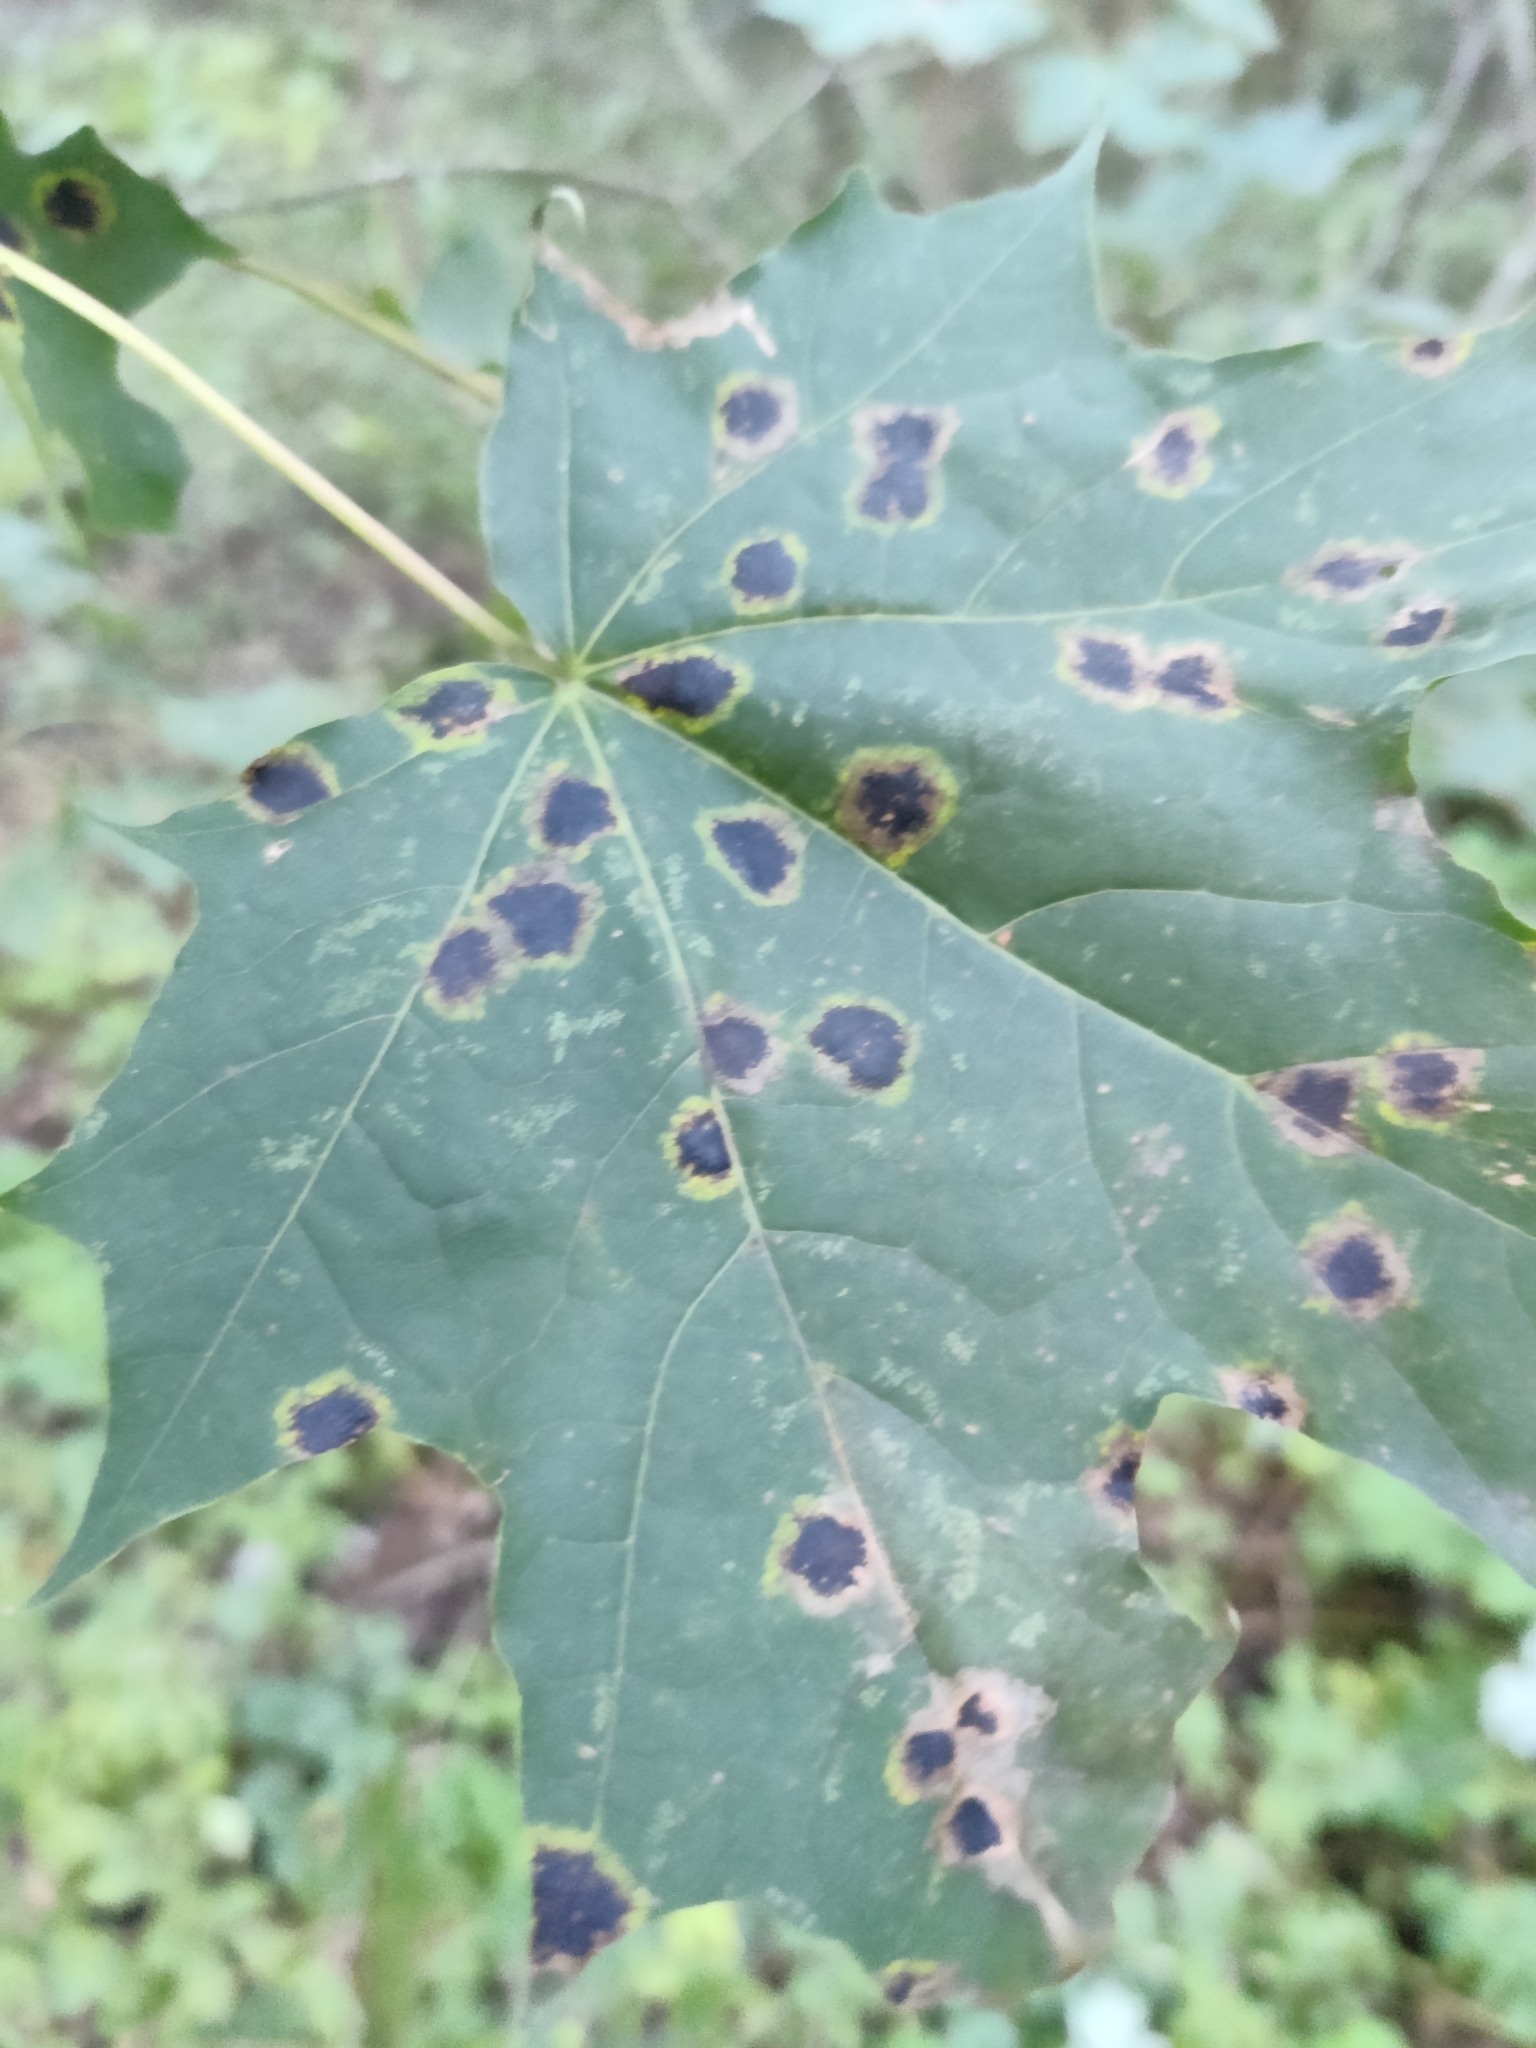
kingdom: Fungi
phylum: Ascomycota
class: Leotiomycetes
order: Rhytismatales
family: Rhytismataceae
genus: Rhytisma
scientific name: Rhytisma acerinum
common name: European tar spot
